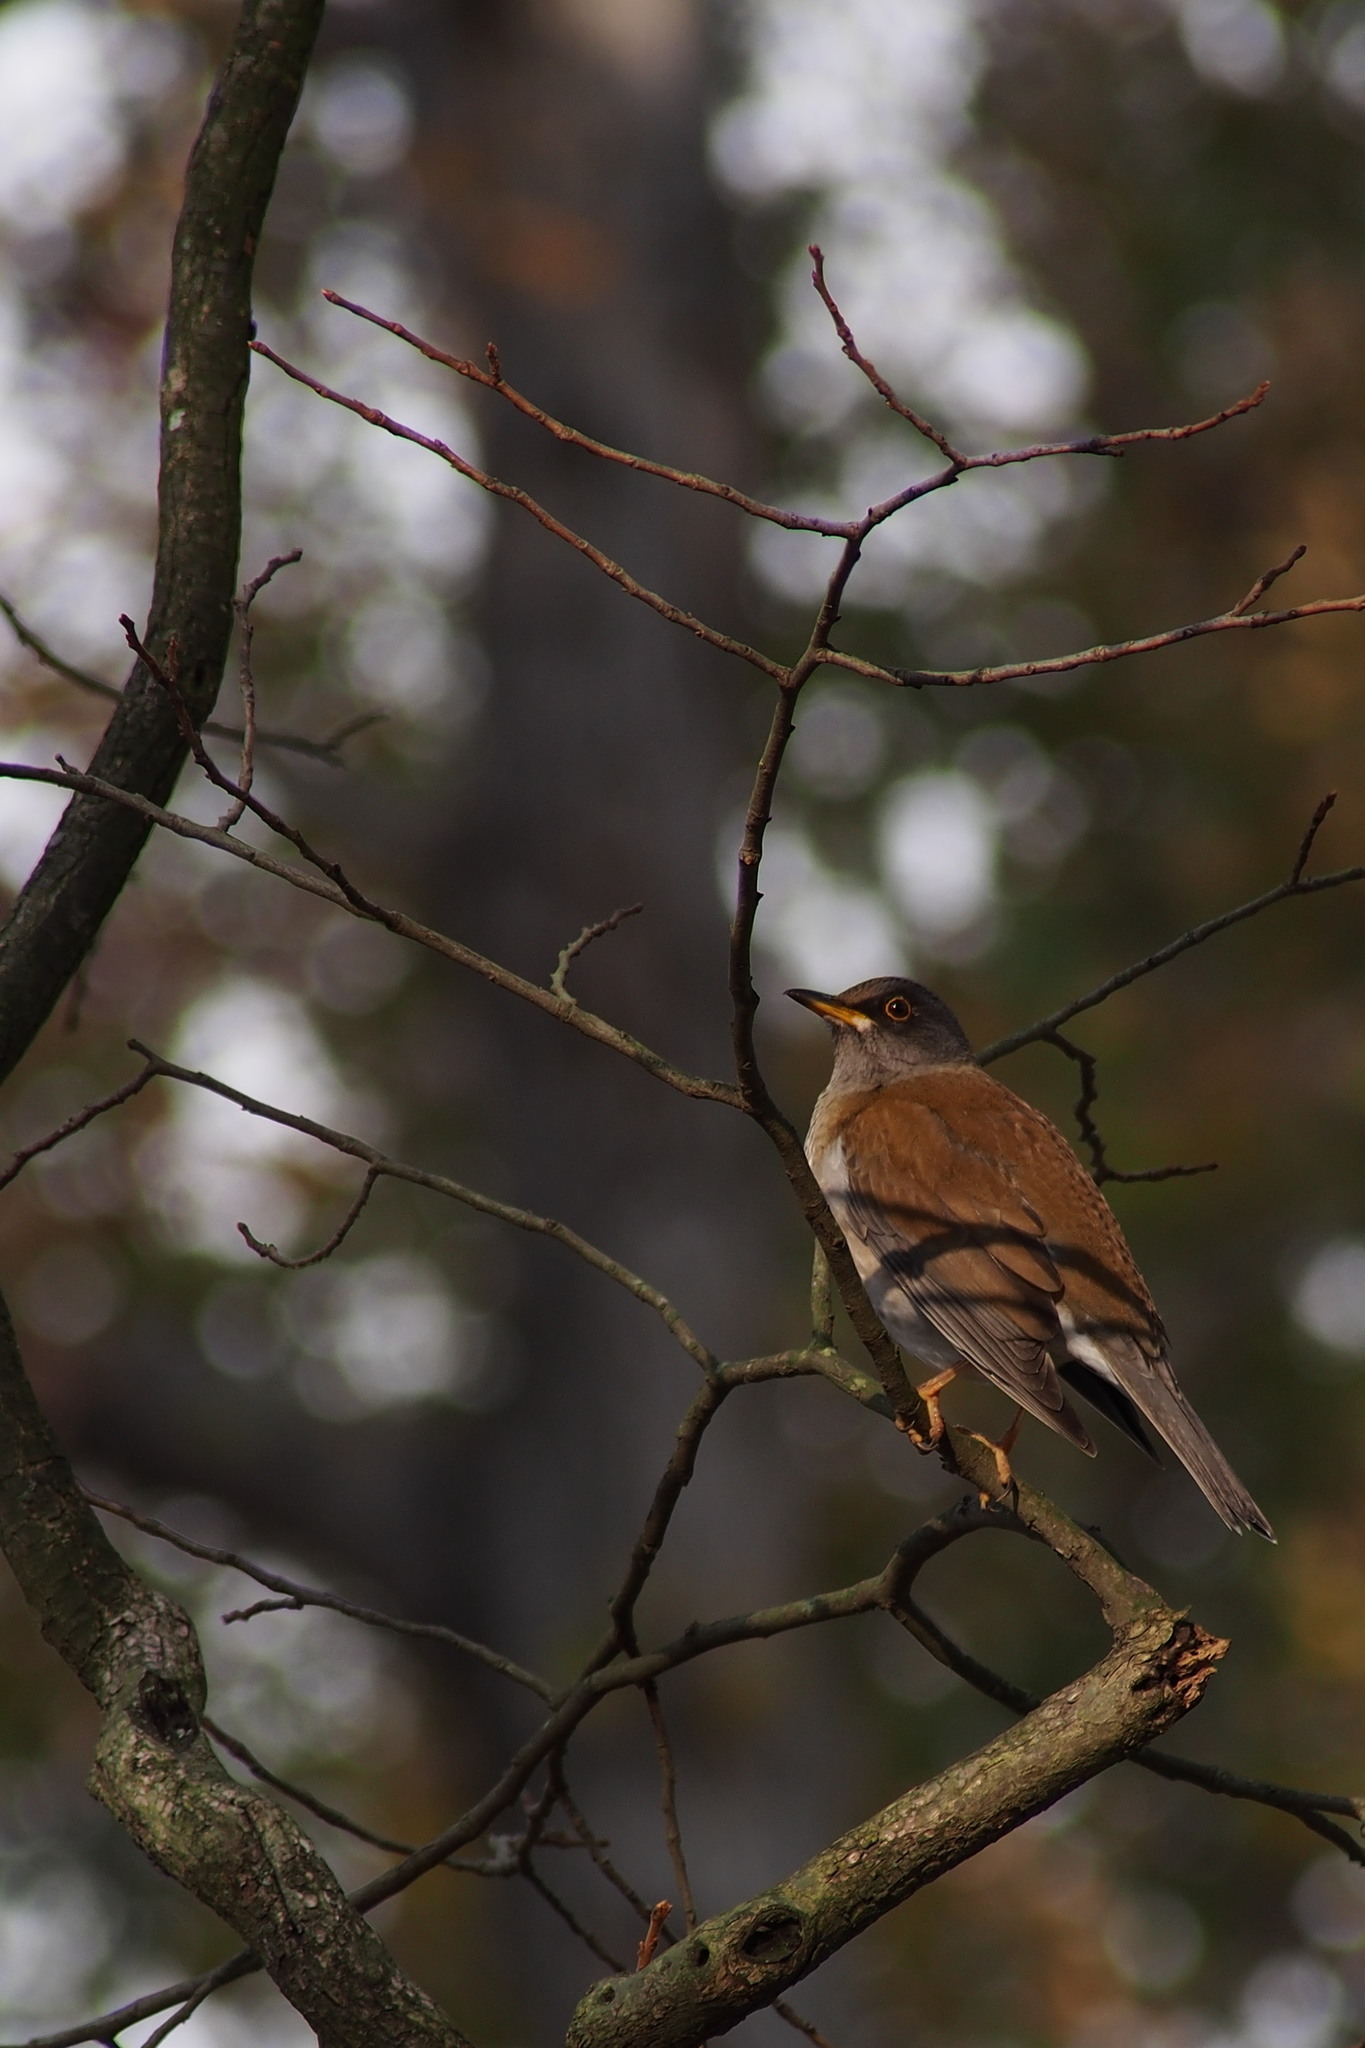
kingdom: Animalia
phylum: Chordata
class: Aves
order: Passeriformes
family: Turdidae
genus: Turdus
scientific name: Turdus pallidus
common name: Pale thrush
